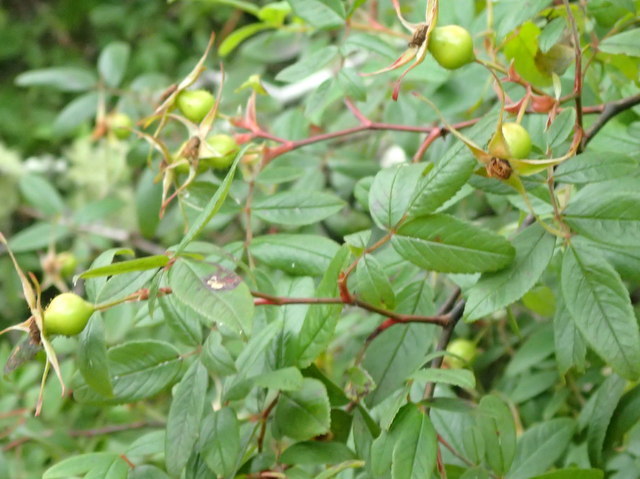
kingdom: Plantae
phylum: Tracheophyta
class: Magnoliopsida
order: Rosales
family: Rosaceae
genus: Rosa
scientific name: Rosa palustris
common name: Swamp rose
